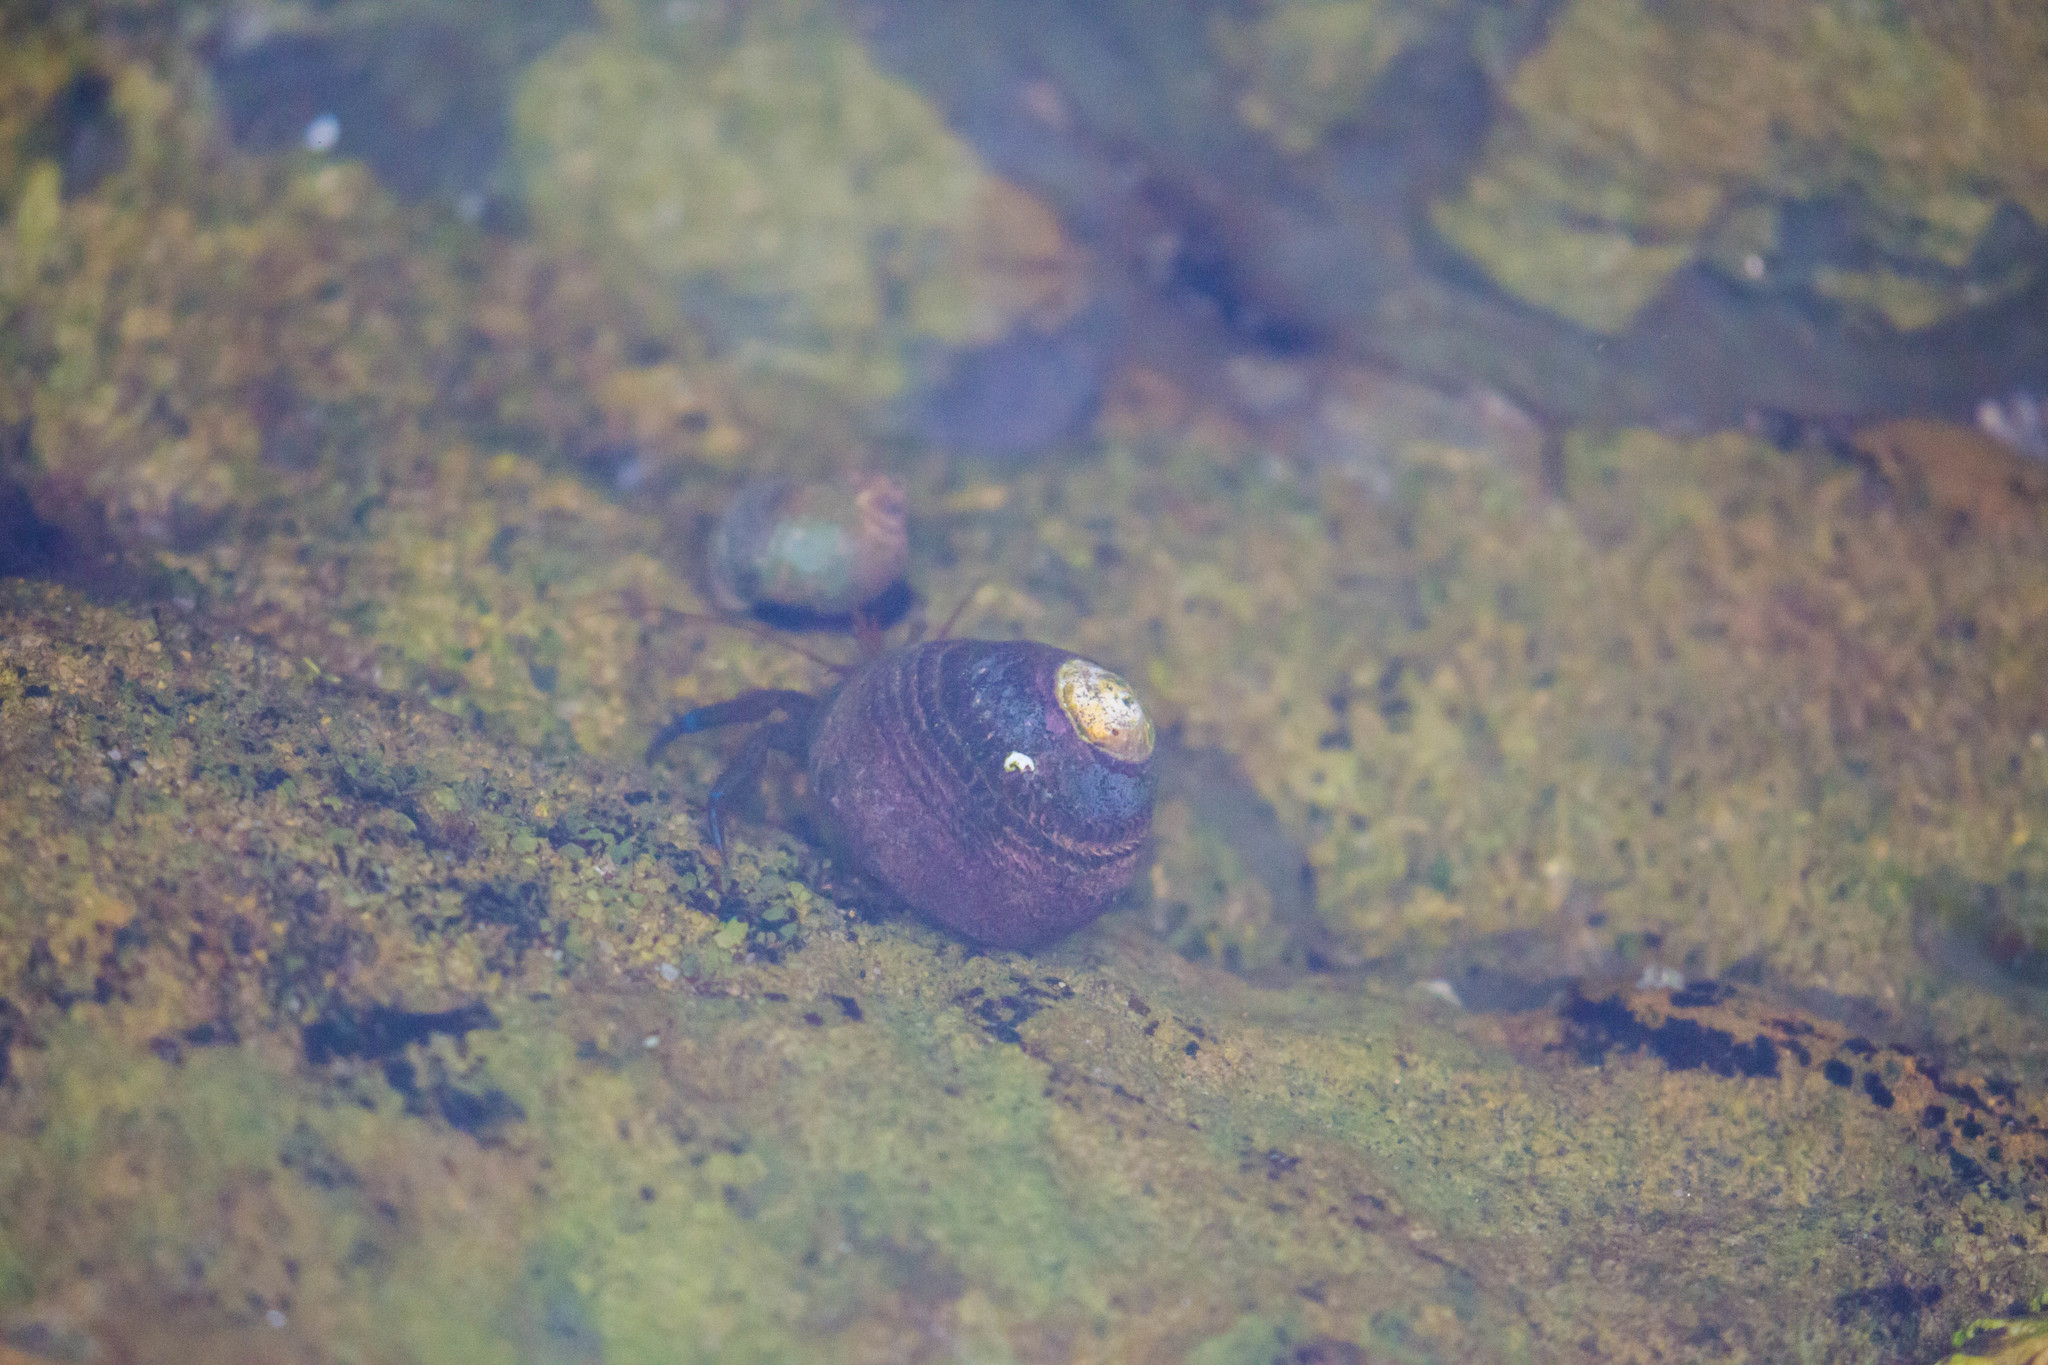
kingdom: Animalia
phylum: Arthropoda
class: Malacostraca
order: Decapoda
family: Paguridae
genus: Pagurus
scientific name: Pagurus samuelis
